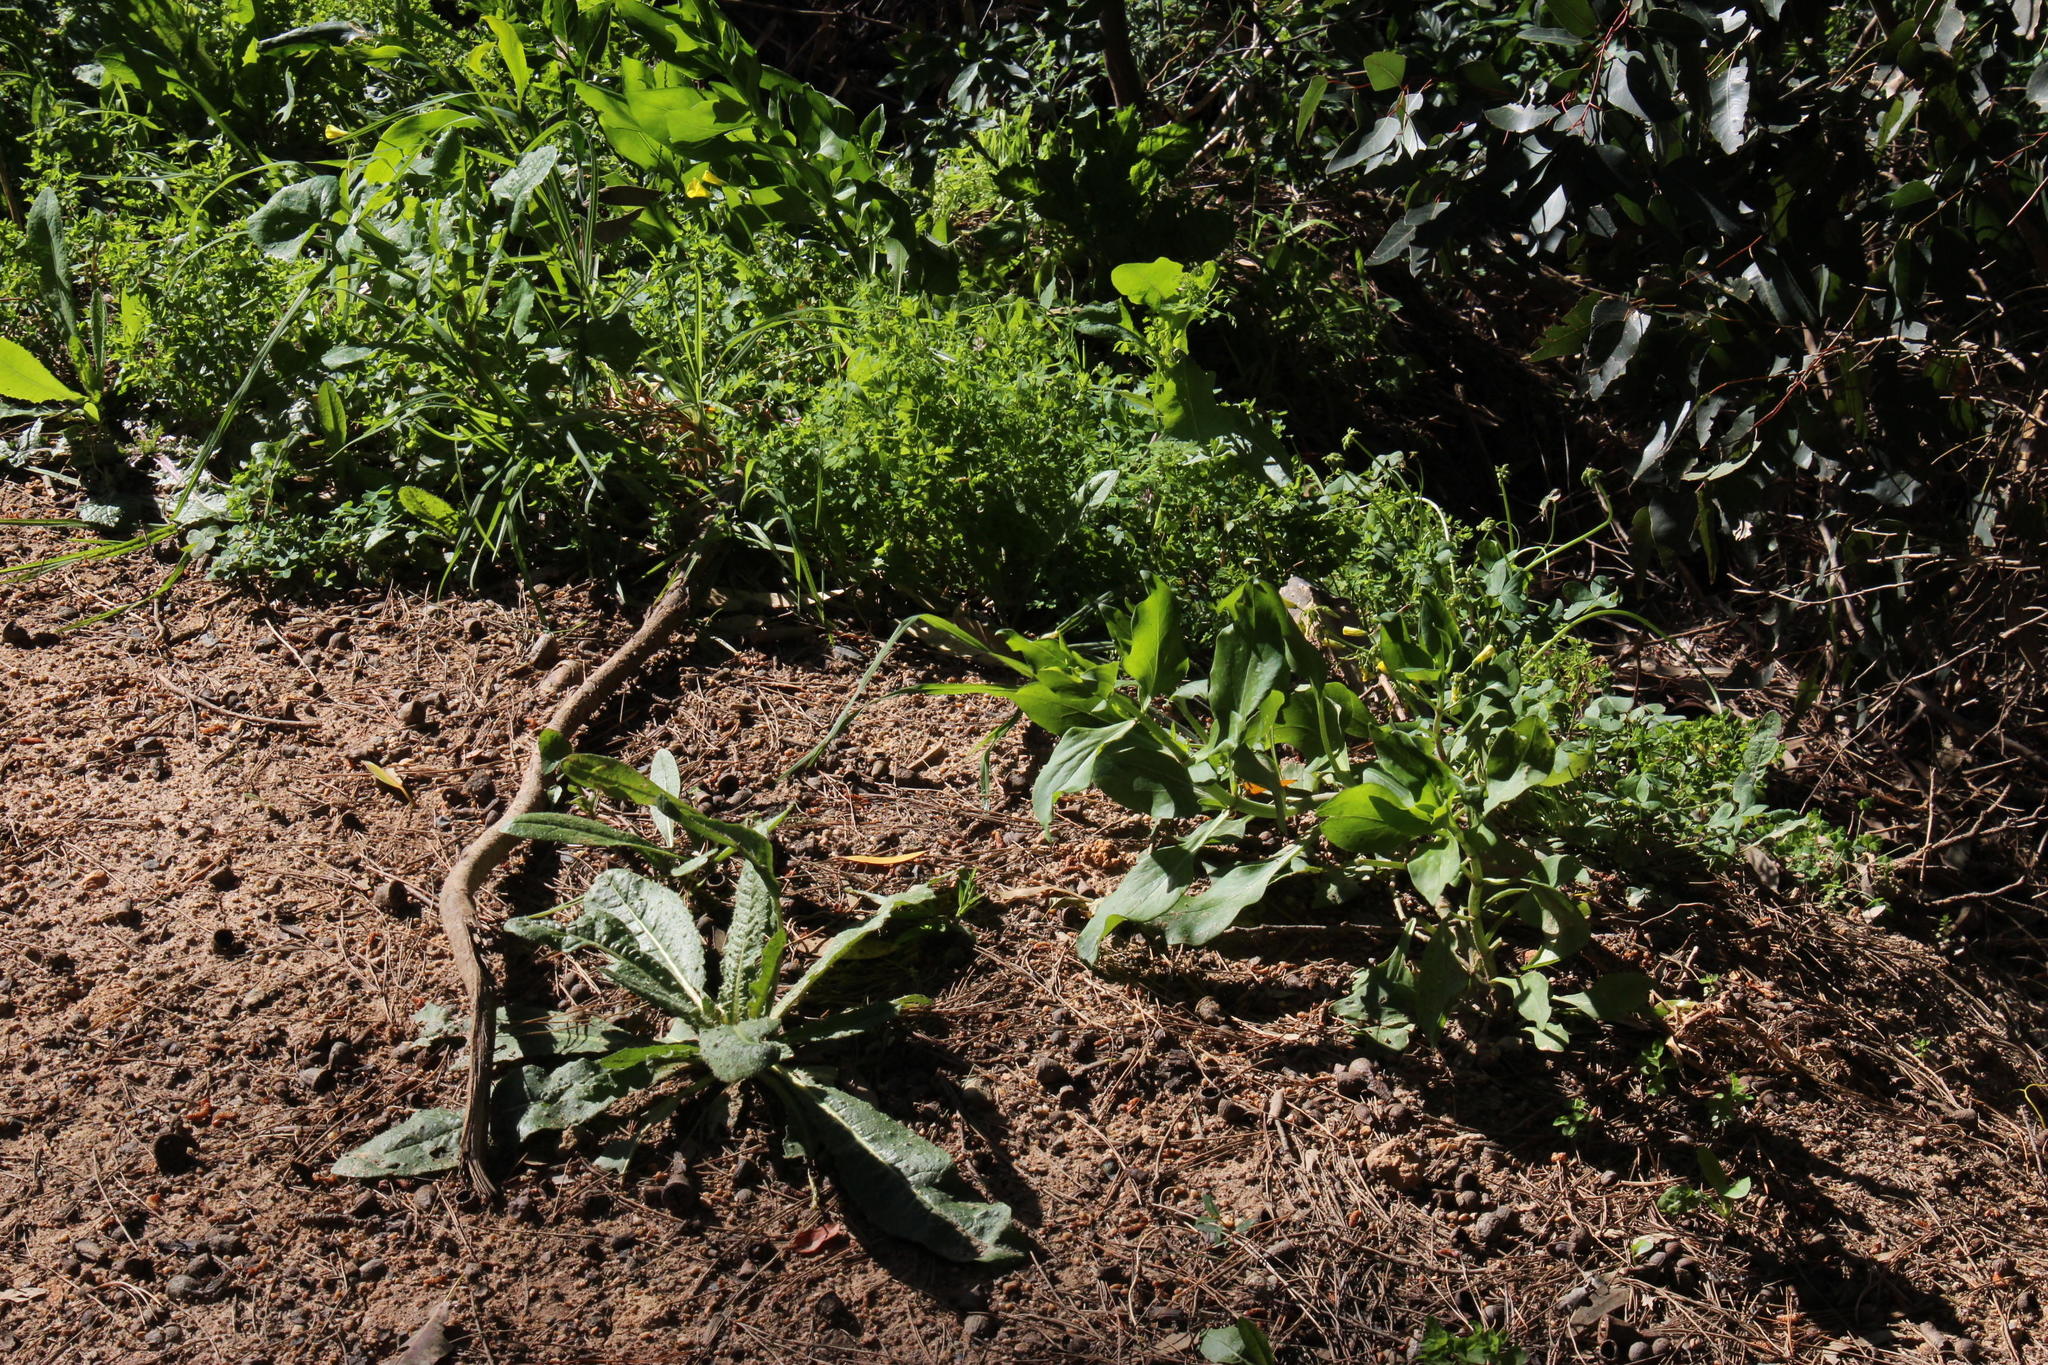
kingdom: Plantae
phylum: Tracheophyta
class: Magnoliopsida
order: Dipsacales
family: Caprifoliaceae
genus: Centranthus
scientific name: Centranthus ruber
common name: Red valerian
